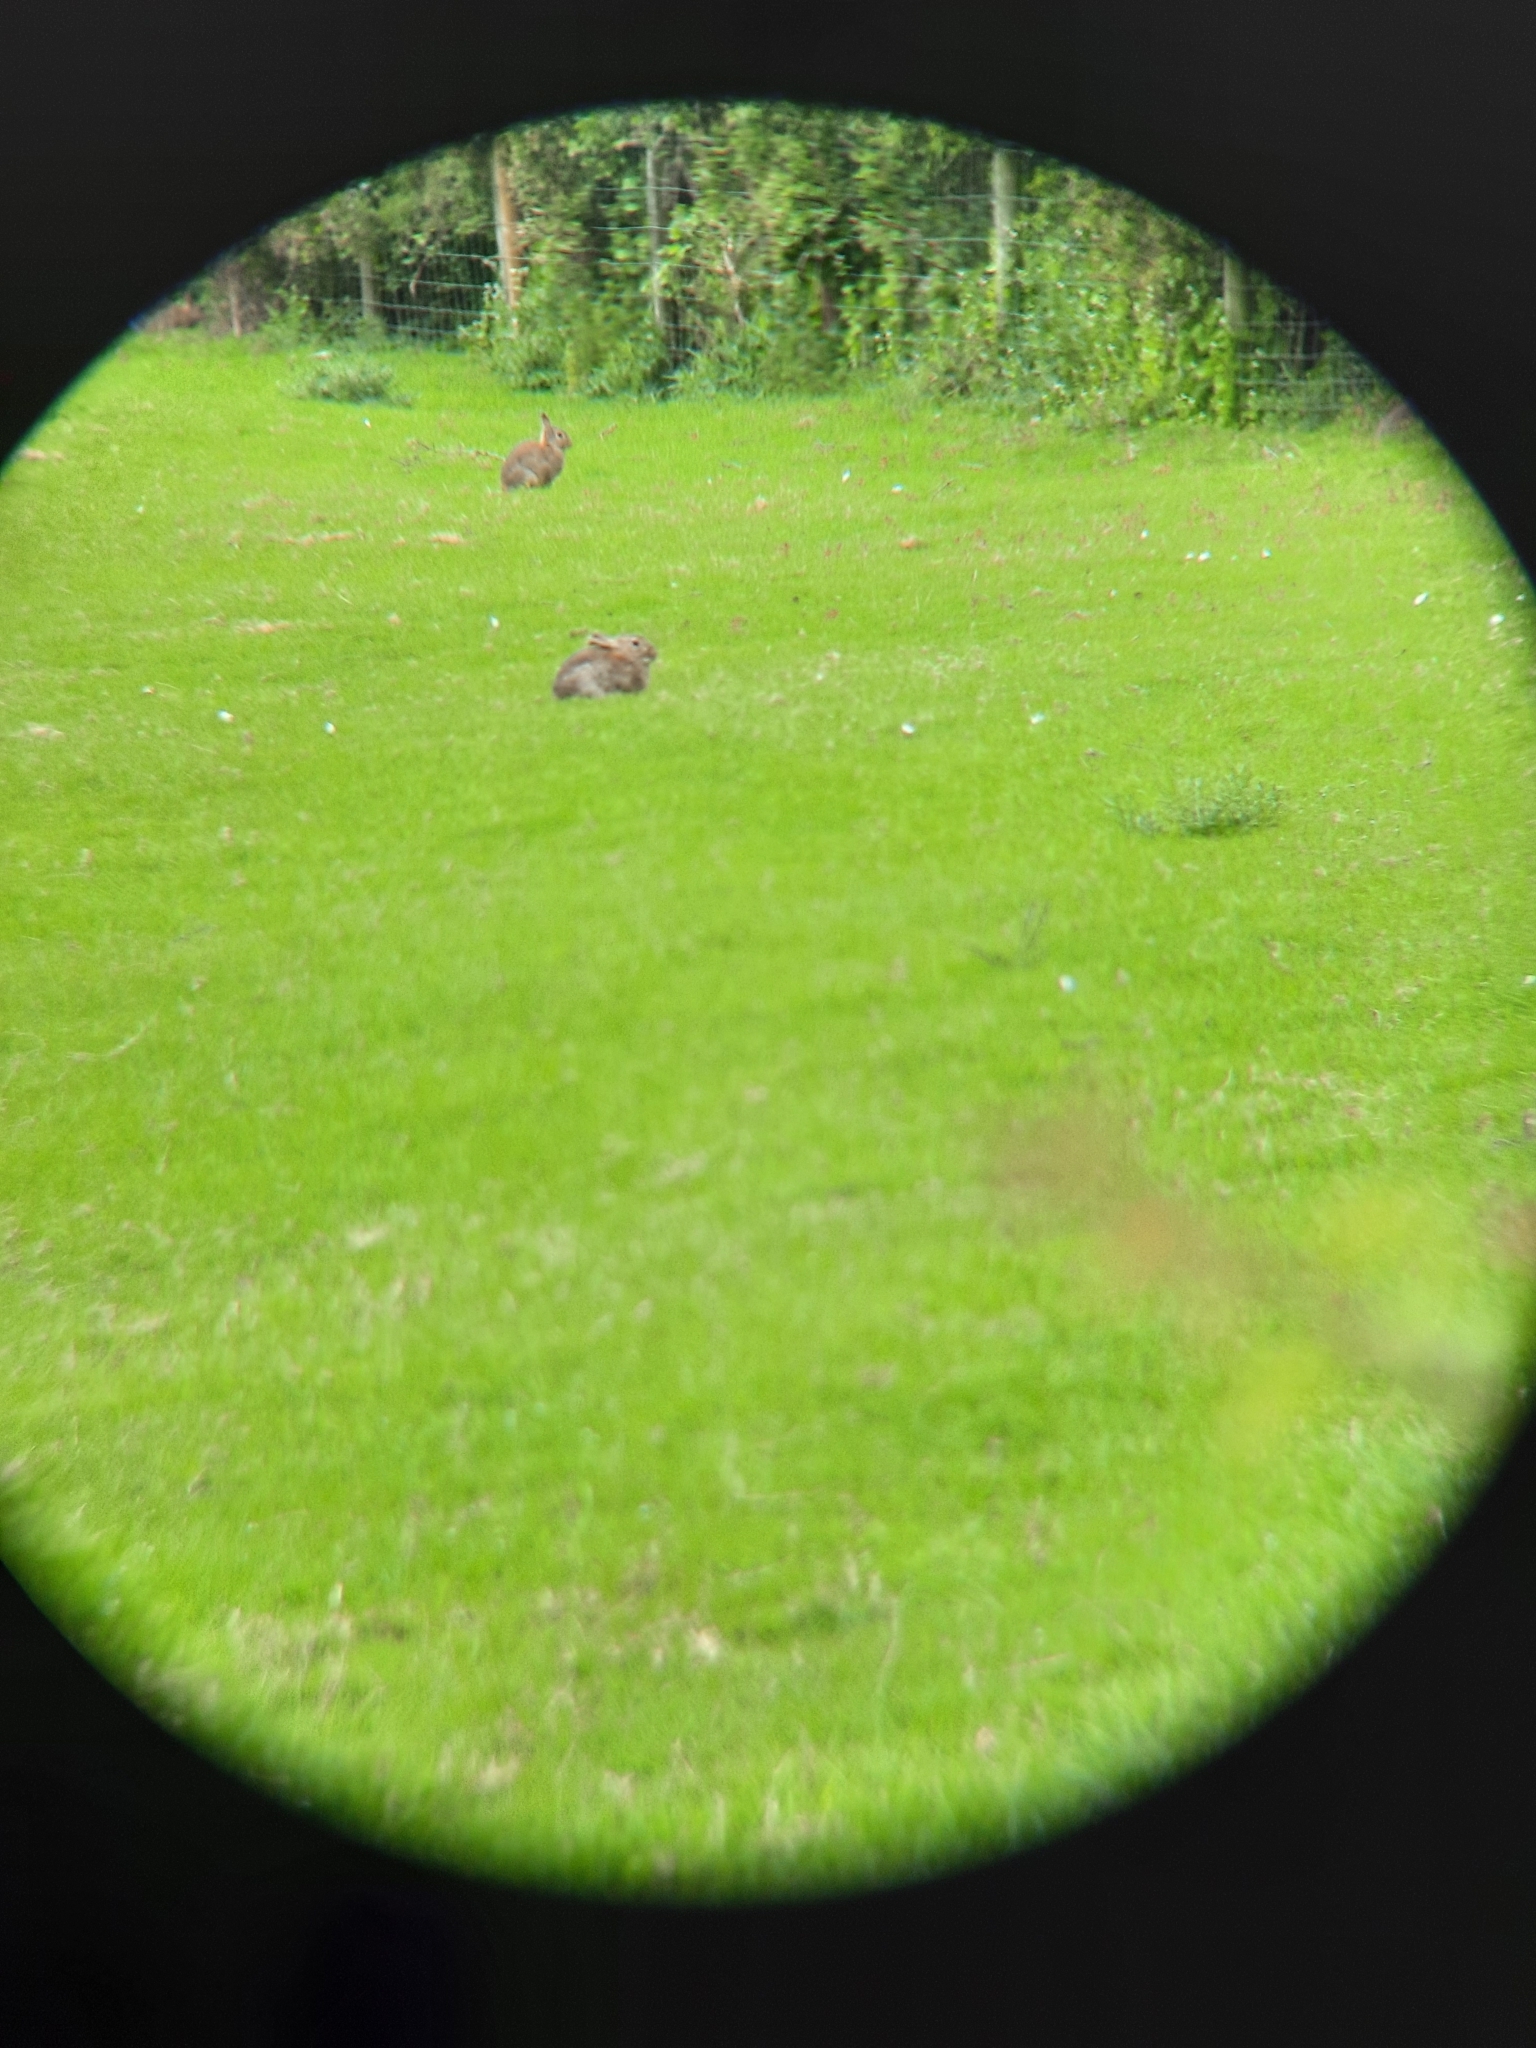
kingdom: Animalia
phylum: Chordata
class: Mammalia
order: Lagomorpha
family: Leporidae
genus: Oryctolagus
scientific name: Oryctolagus cuniculus
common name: European rabbit
